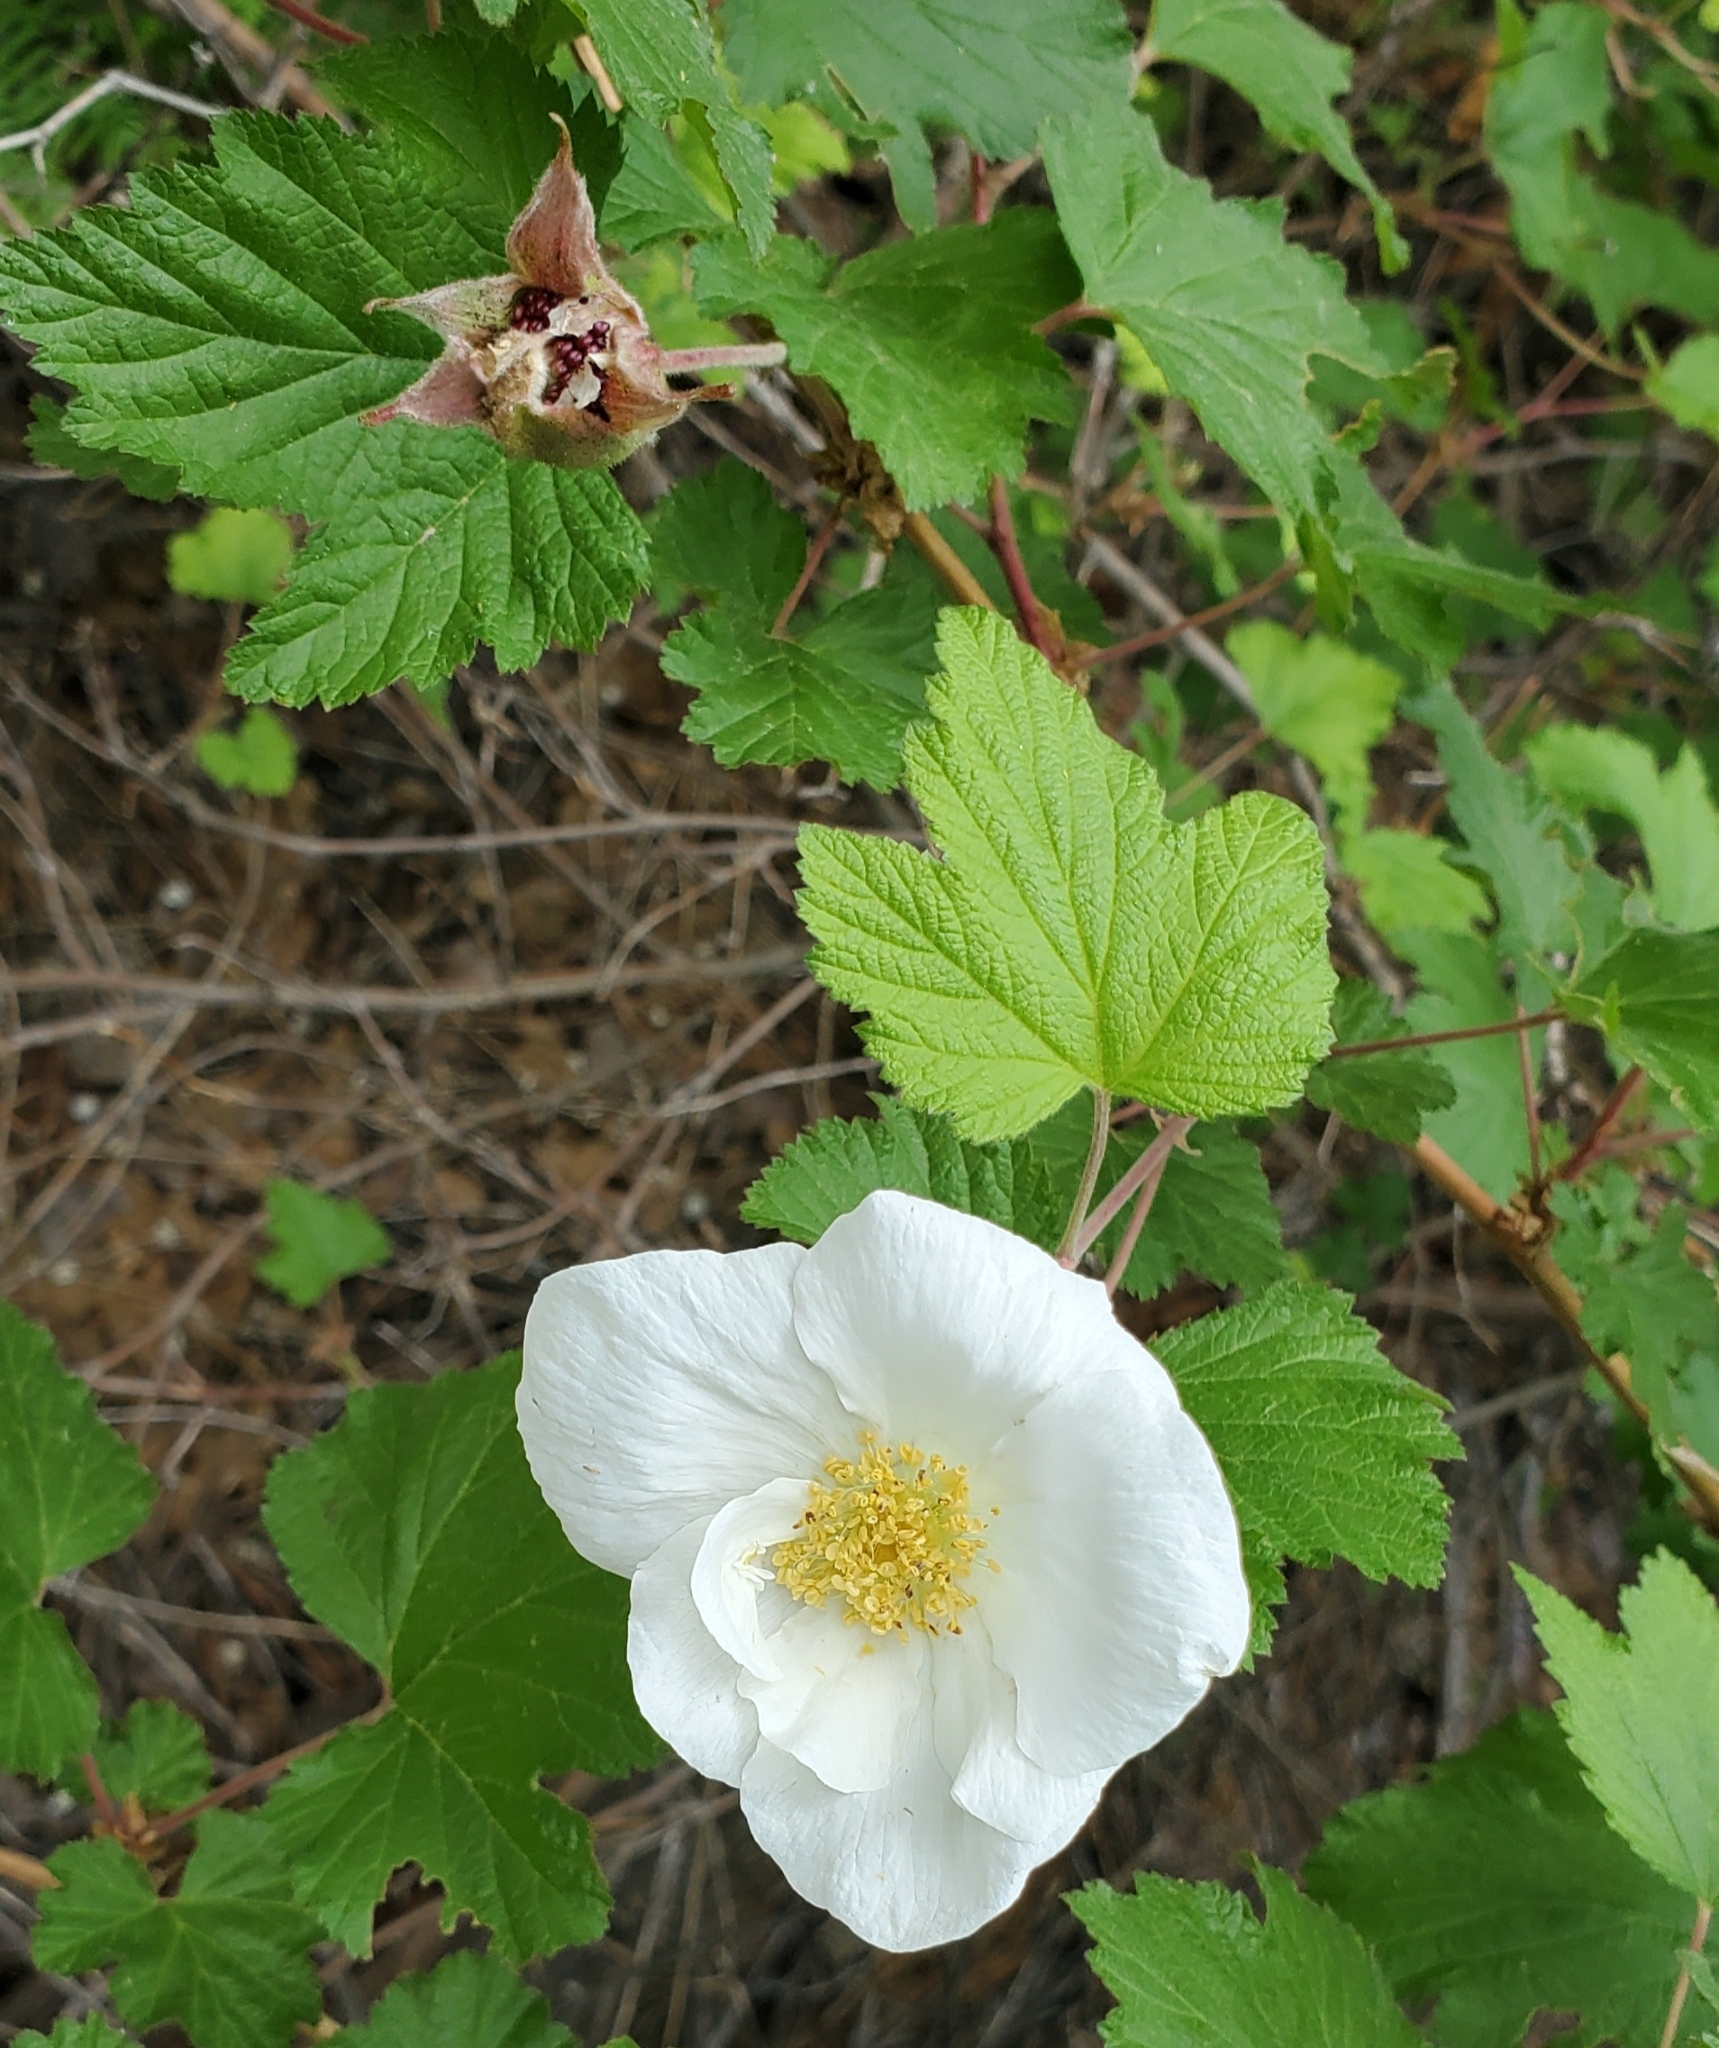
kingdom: Plantae
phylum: Tracheophyta
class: Magnoliopsida
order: Rosales
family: Rosaceae
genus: Rubus
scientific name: Rubus neomexicanus
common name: New mexico raspberry
